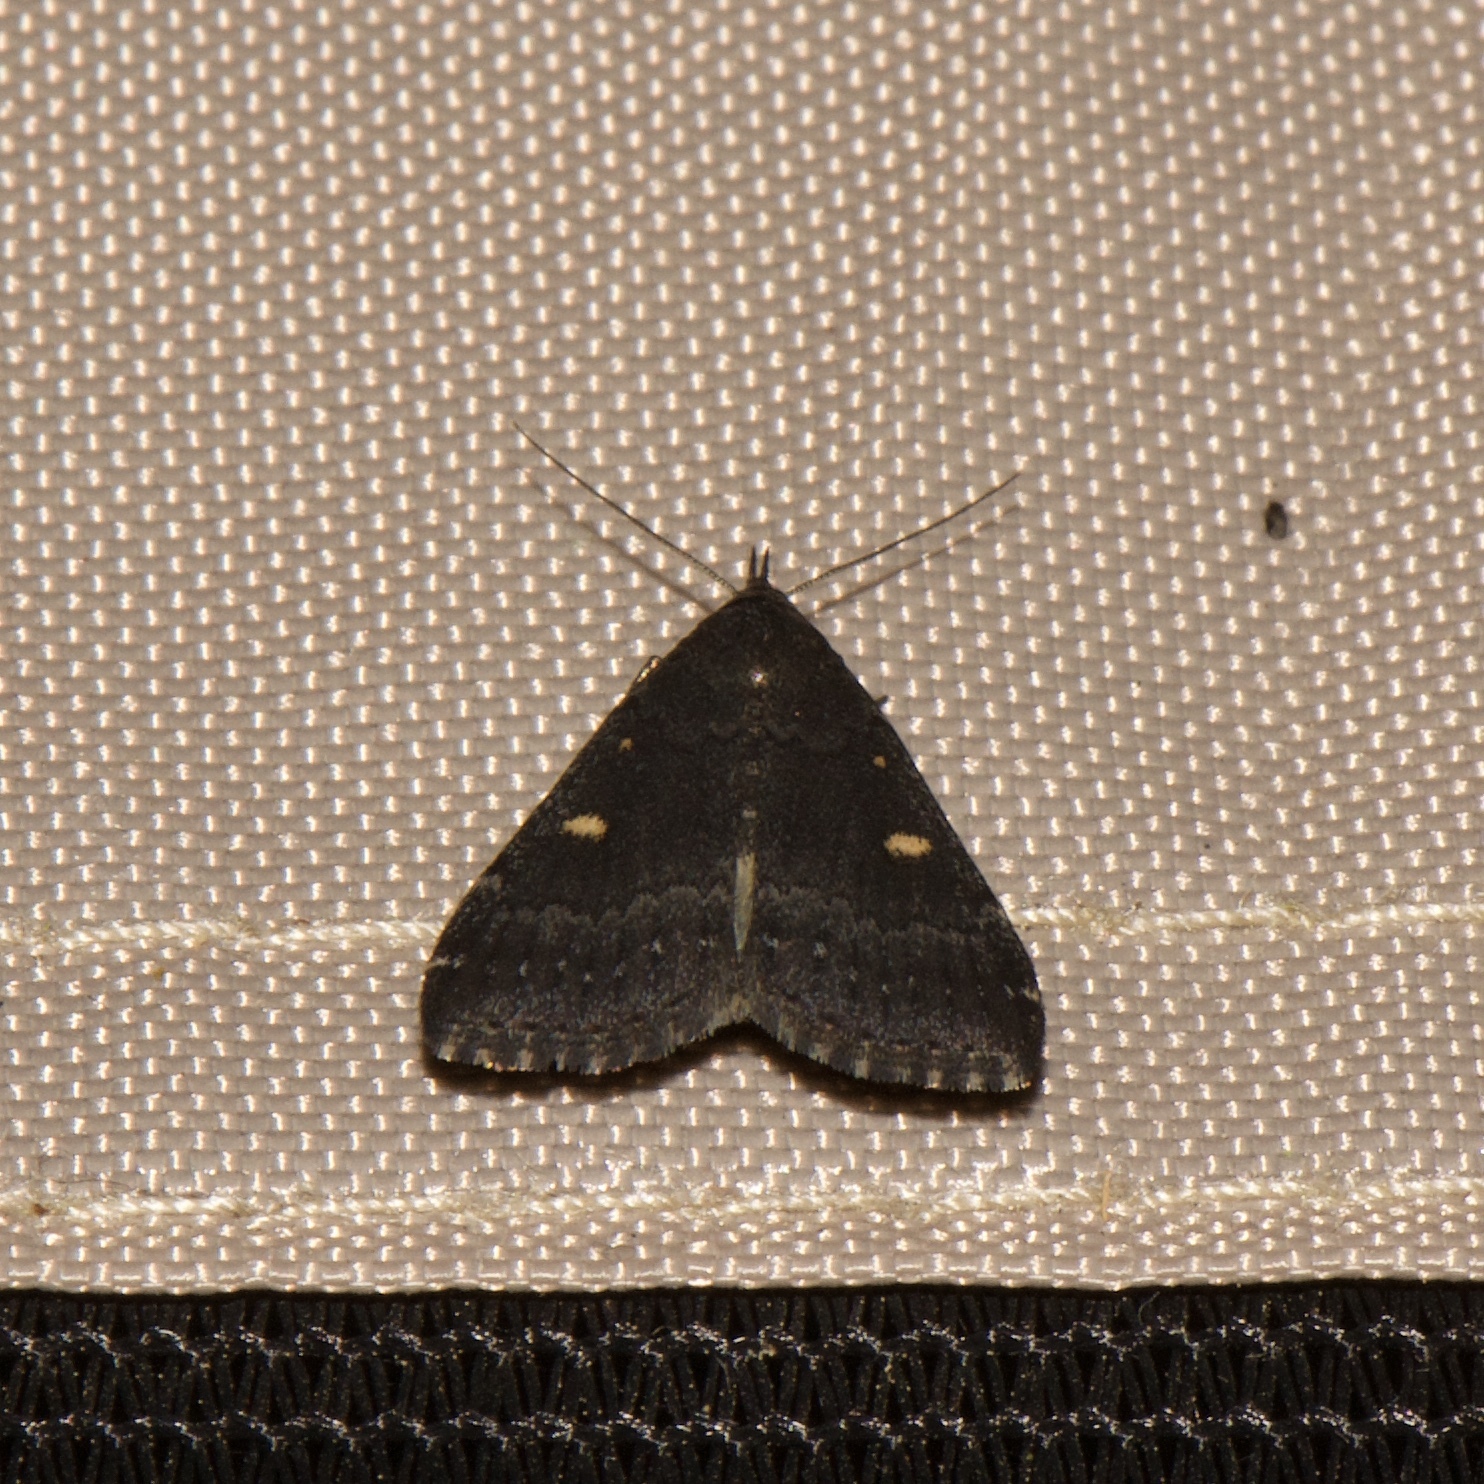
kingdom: Animalia
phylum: Arthropoda
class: Insecta
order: Lepidoptera
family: Erebidae
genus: Tetanolita
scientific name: Tetanolita mynesalis
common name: Smoky tetanolita moth
